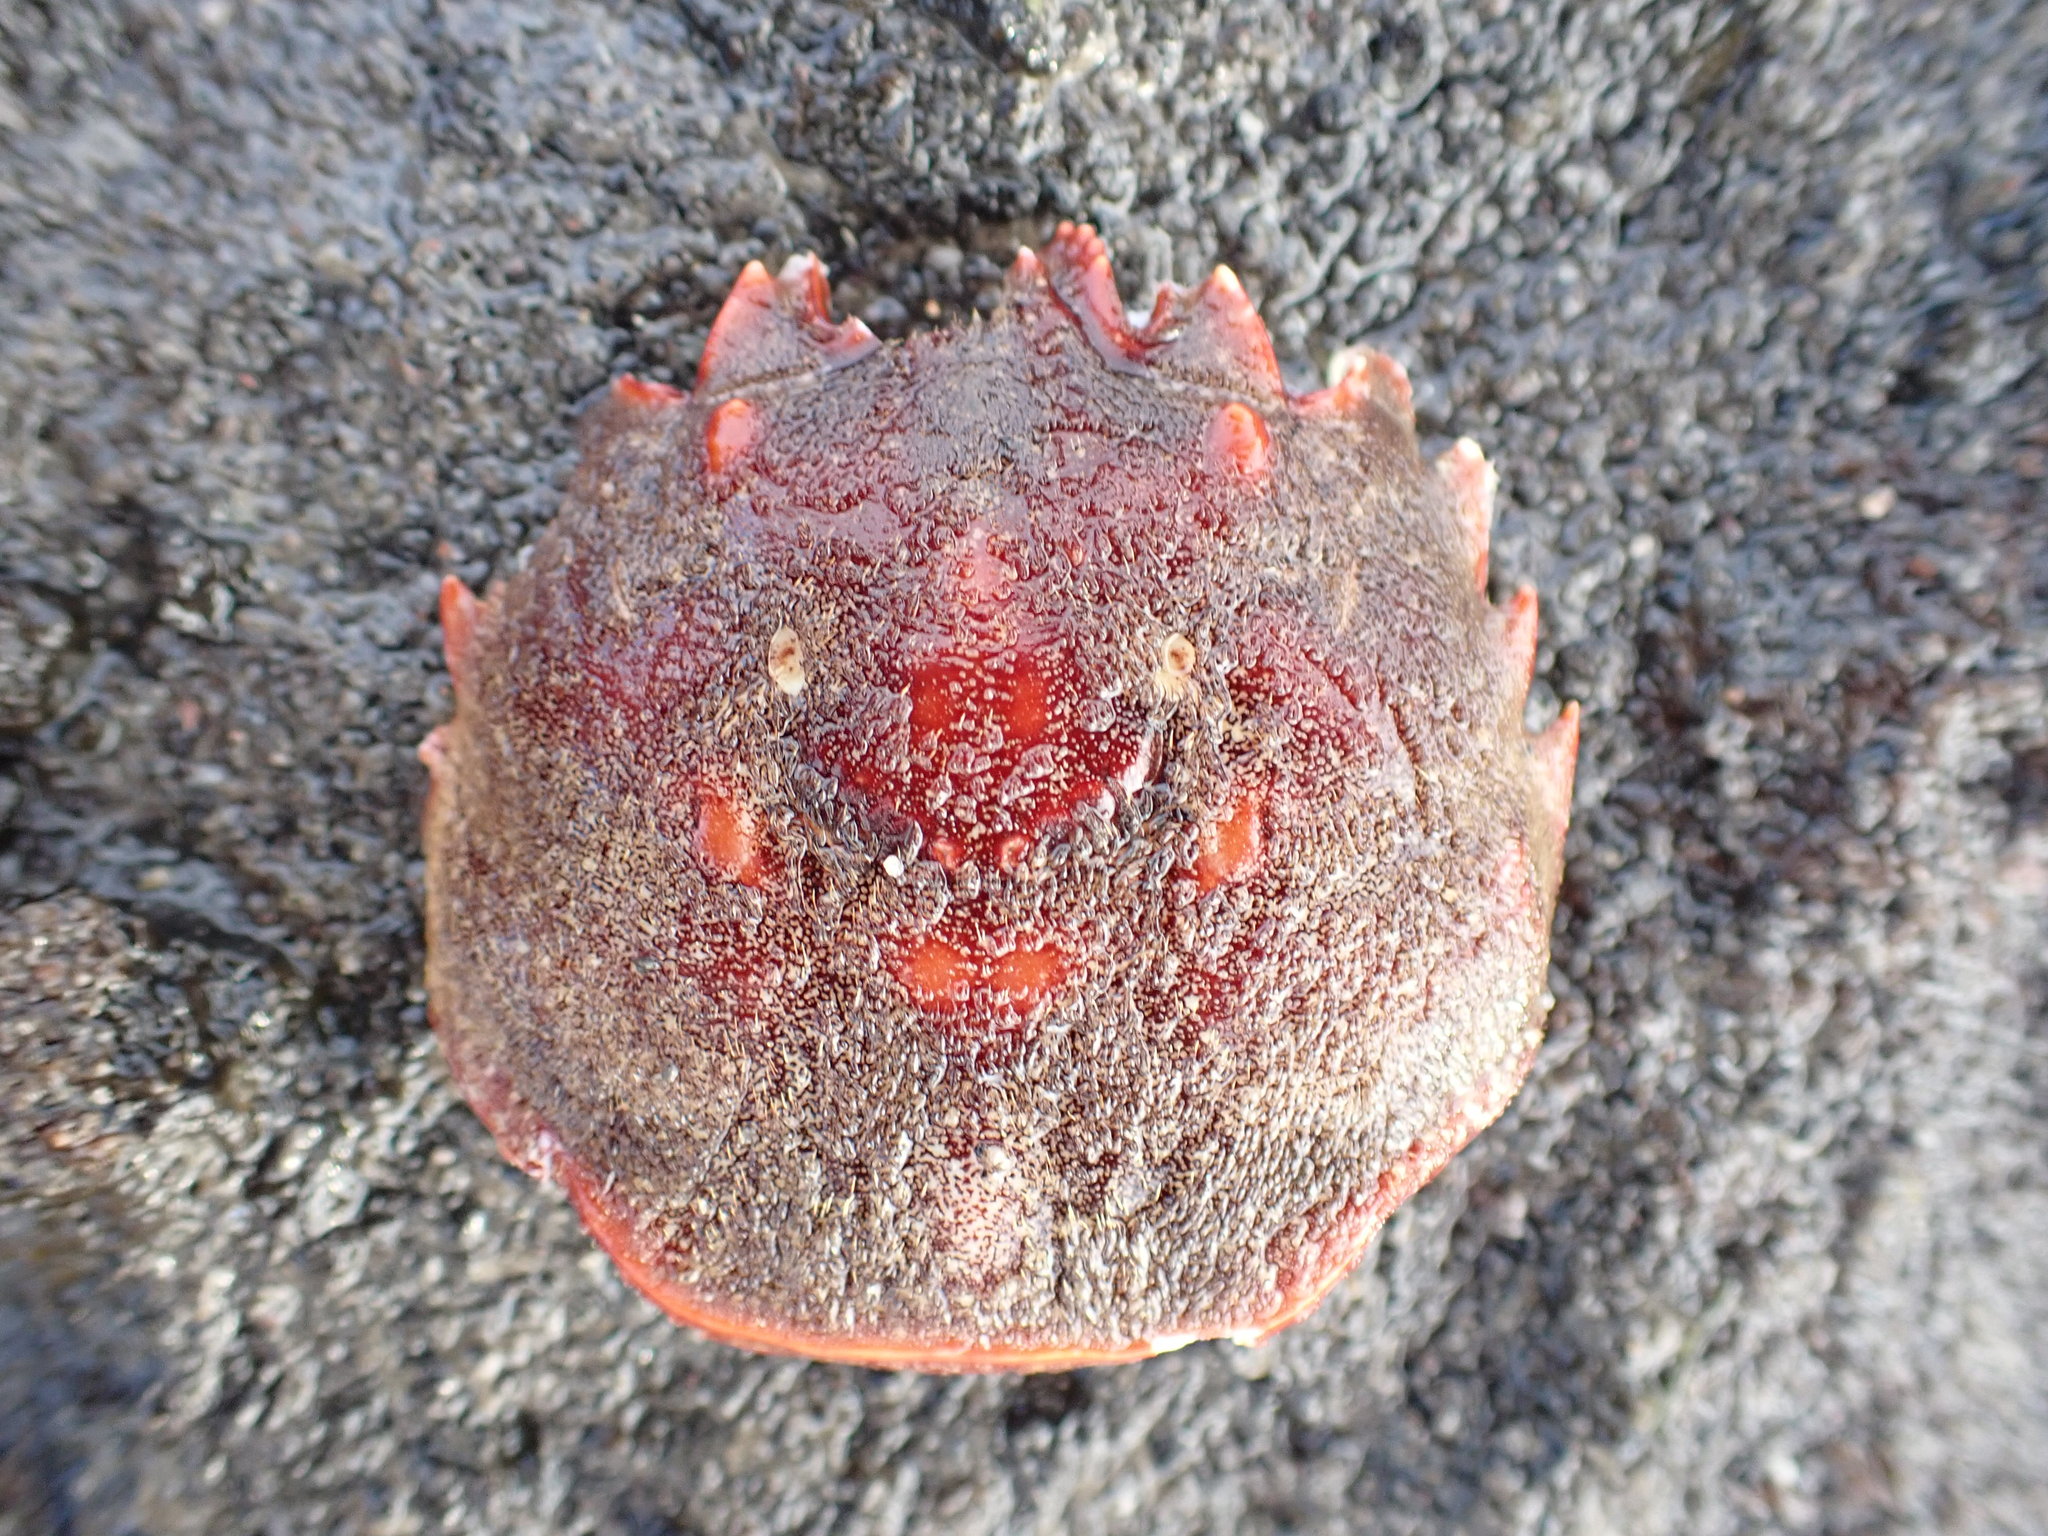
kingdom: Animalia
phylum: Arthropoda
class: Malacostraca
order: Decapoda
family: Plagusiidae
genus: Guinusia
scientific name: Guinusia chabrus
